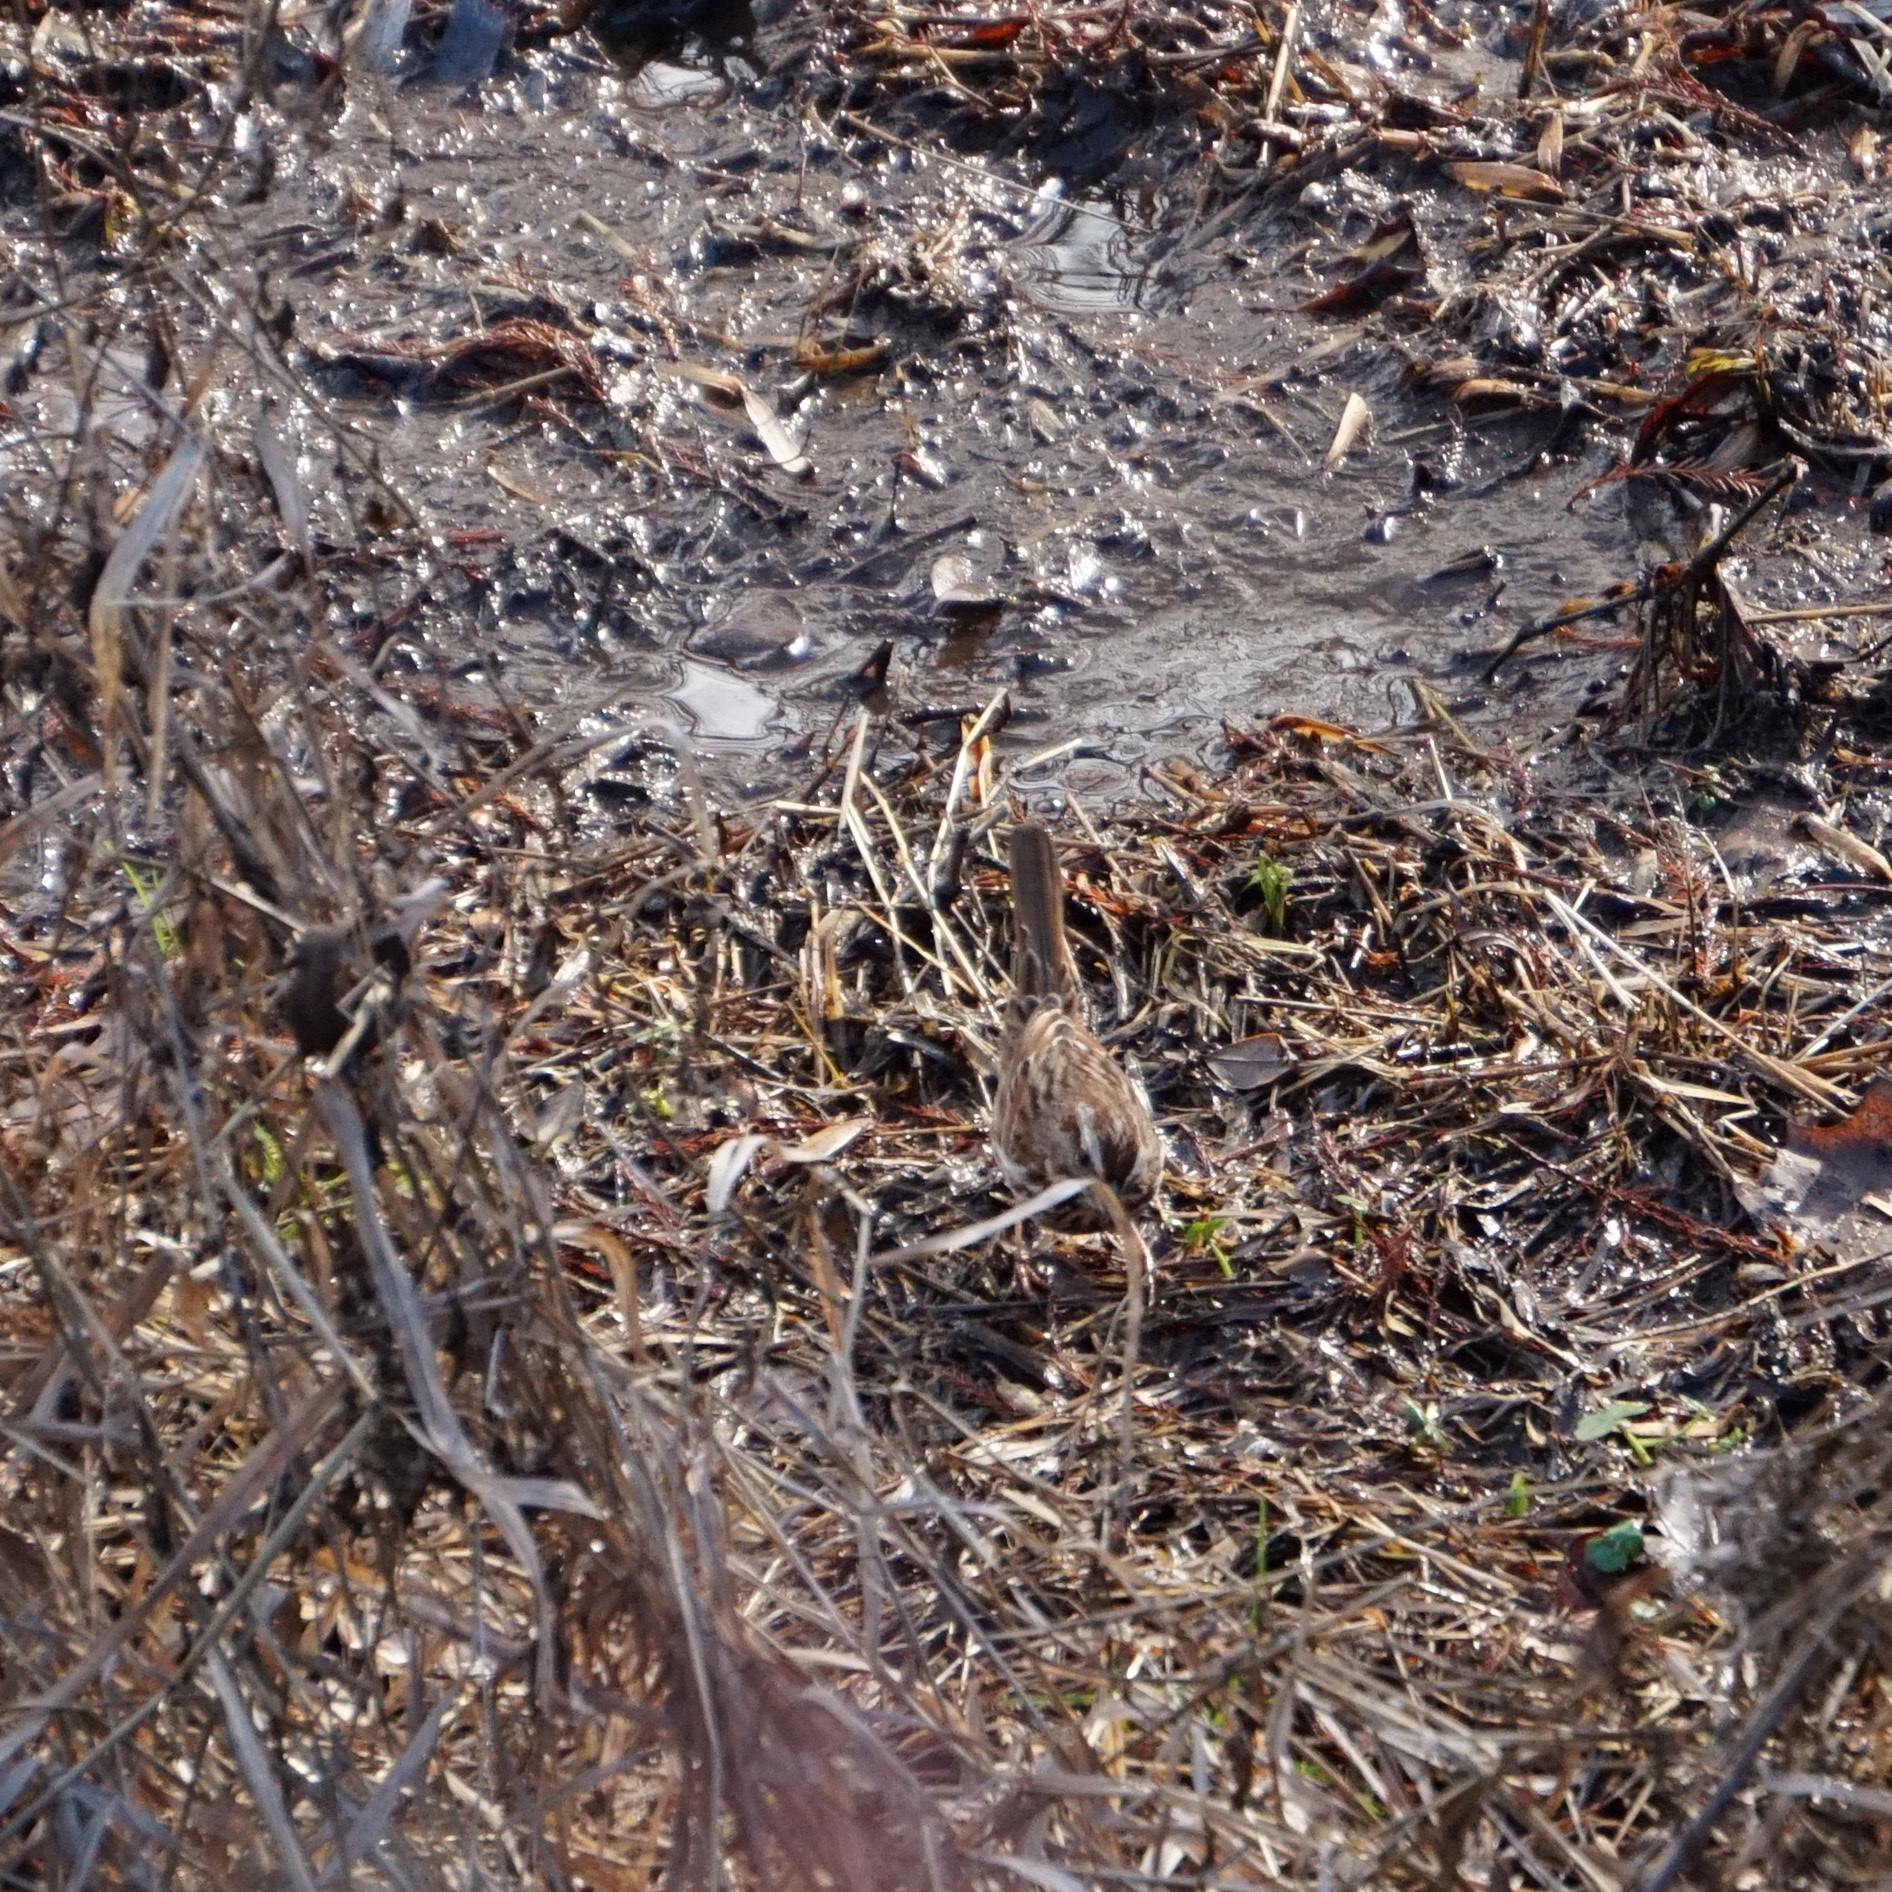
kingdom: Animalia
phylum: Chordata
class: Aves
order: Passeriformes
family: Passerellidae
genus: Melospiza
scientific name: Melospiza melodia
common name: Song sparrow
